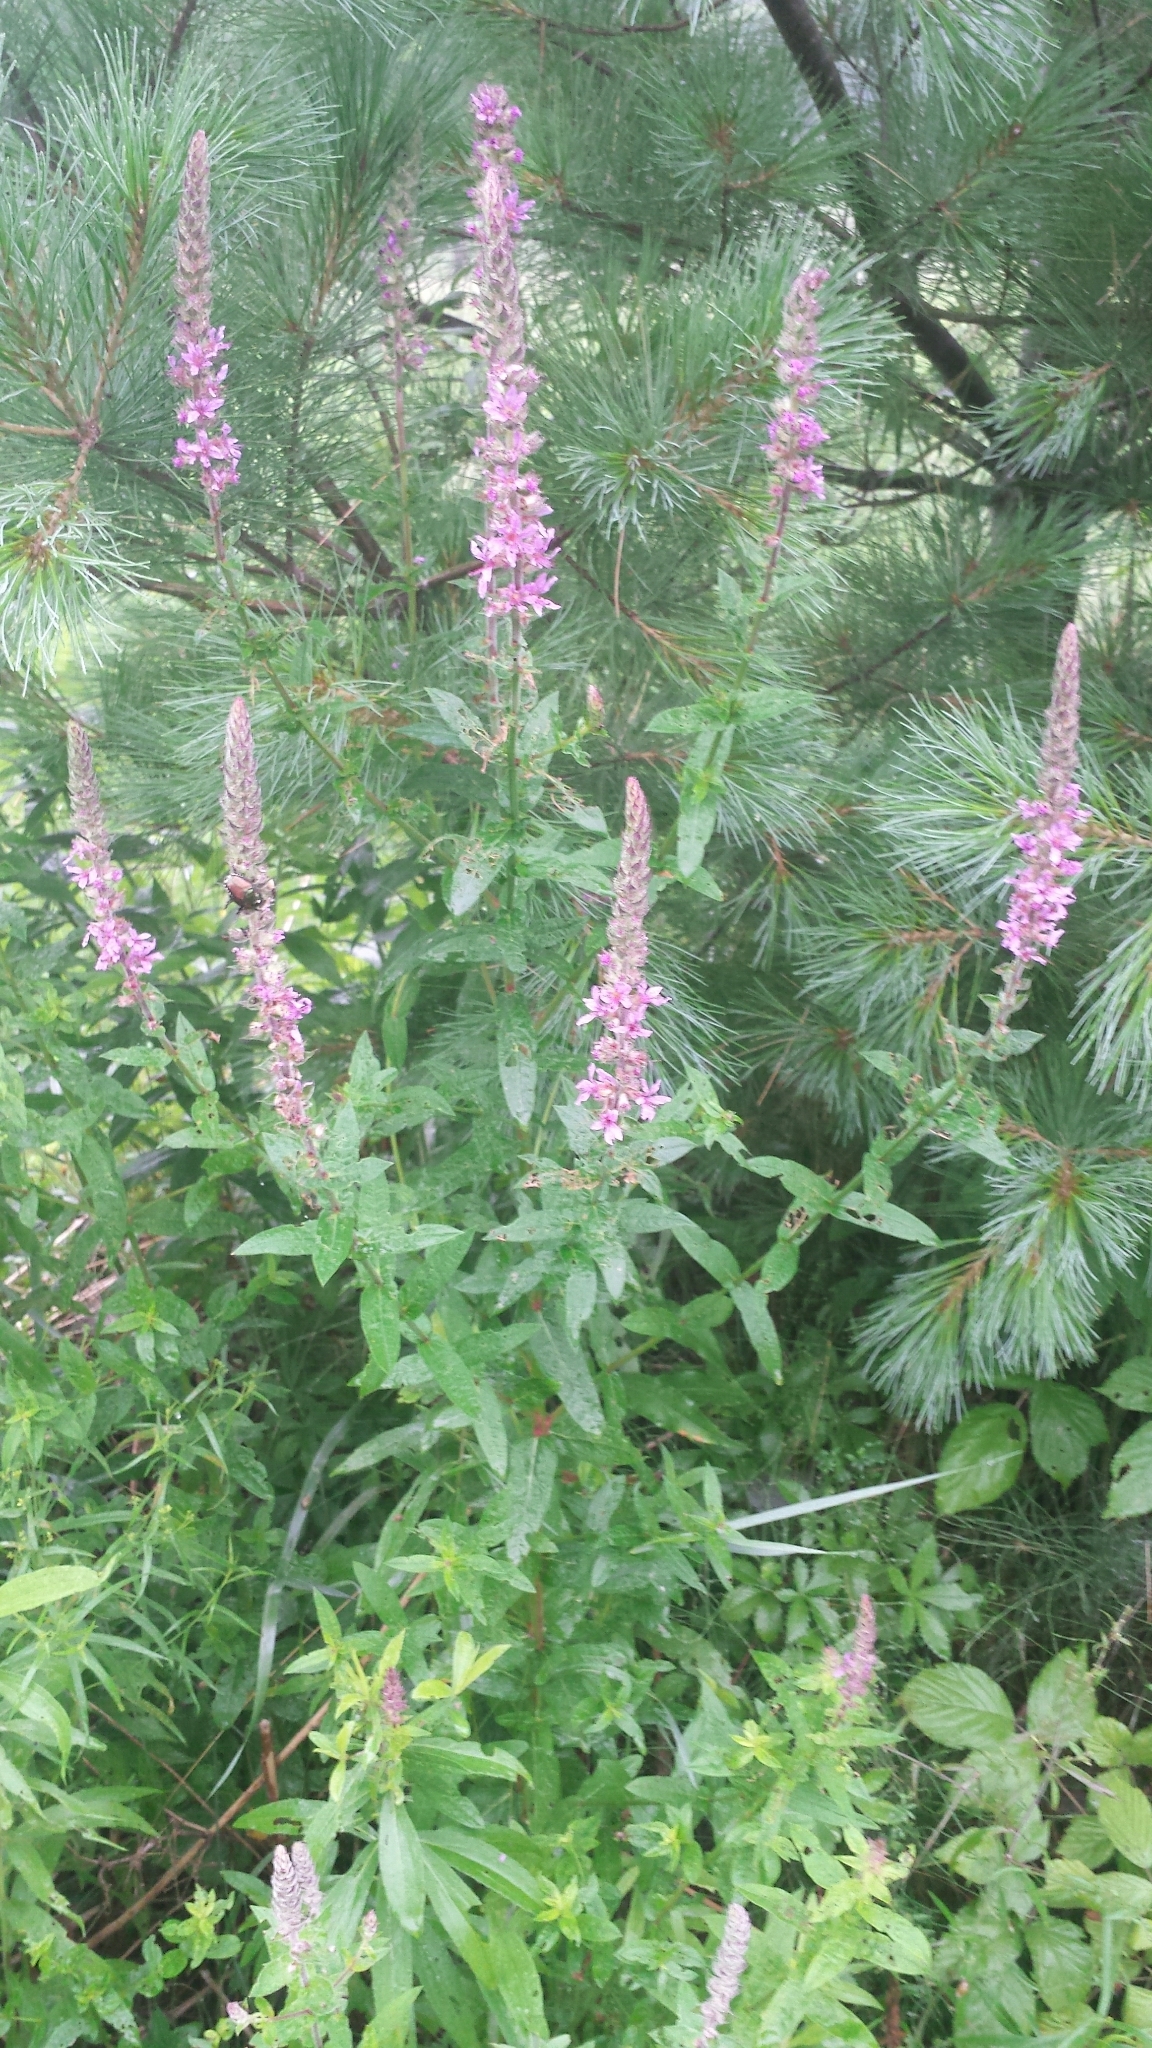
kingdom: Plantae
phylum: Tracheophyta
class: Magnoliopsida
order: Myrtales
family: Lythraceae
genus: Lythrum
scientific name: Lythrum salicaria
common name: Purple loosestrife
